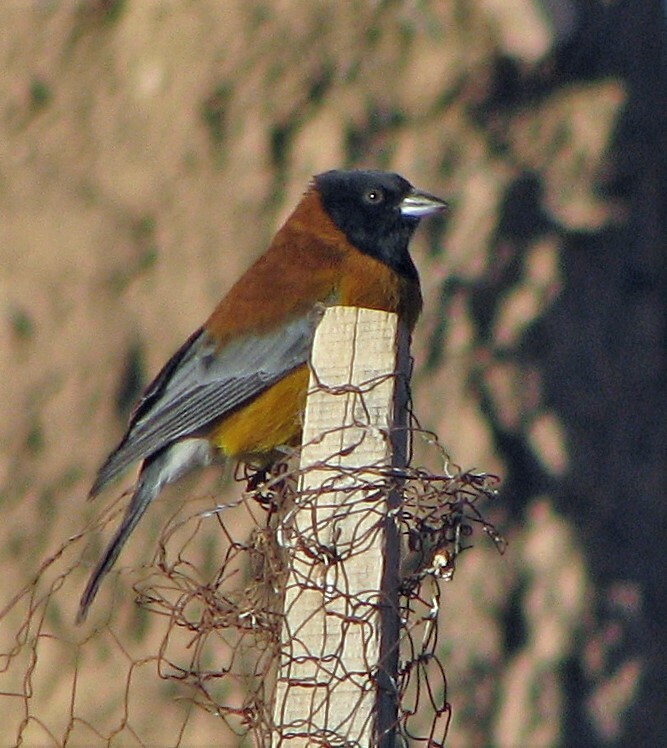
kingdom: Animalia
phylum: Chordata
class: Aves
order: Passeriformes
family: Thraupidae
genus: Phrygilus
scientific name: Phrygilus atriceps
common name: Black-hooded sierra finch
